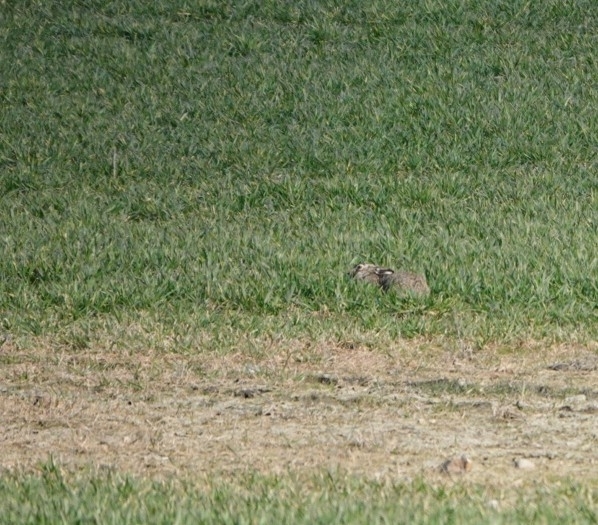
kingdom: Animalia
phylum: Chordata
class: Mammalia
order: Lagomorpha
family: Leporidae
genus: Lepus
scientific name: Lepus europaeus
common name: European hare
